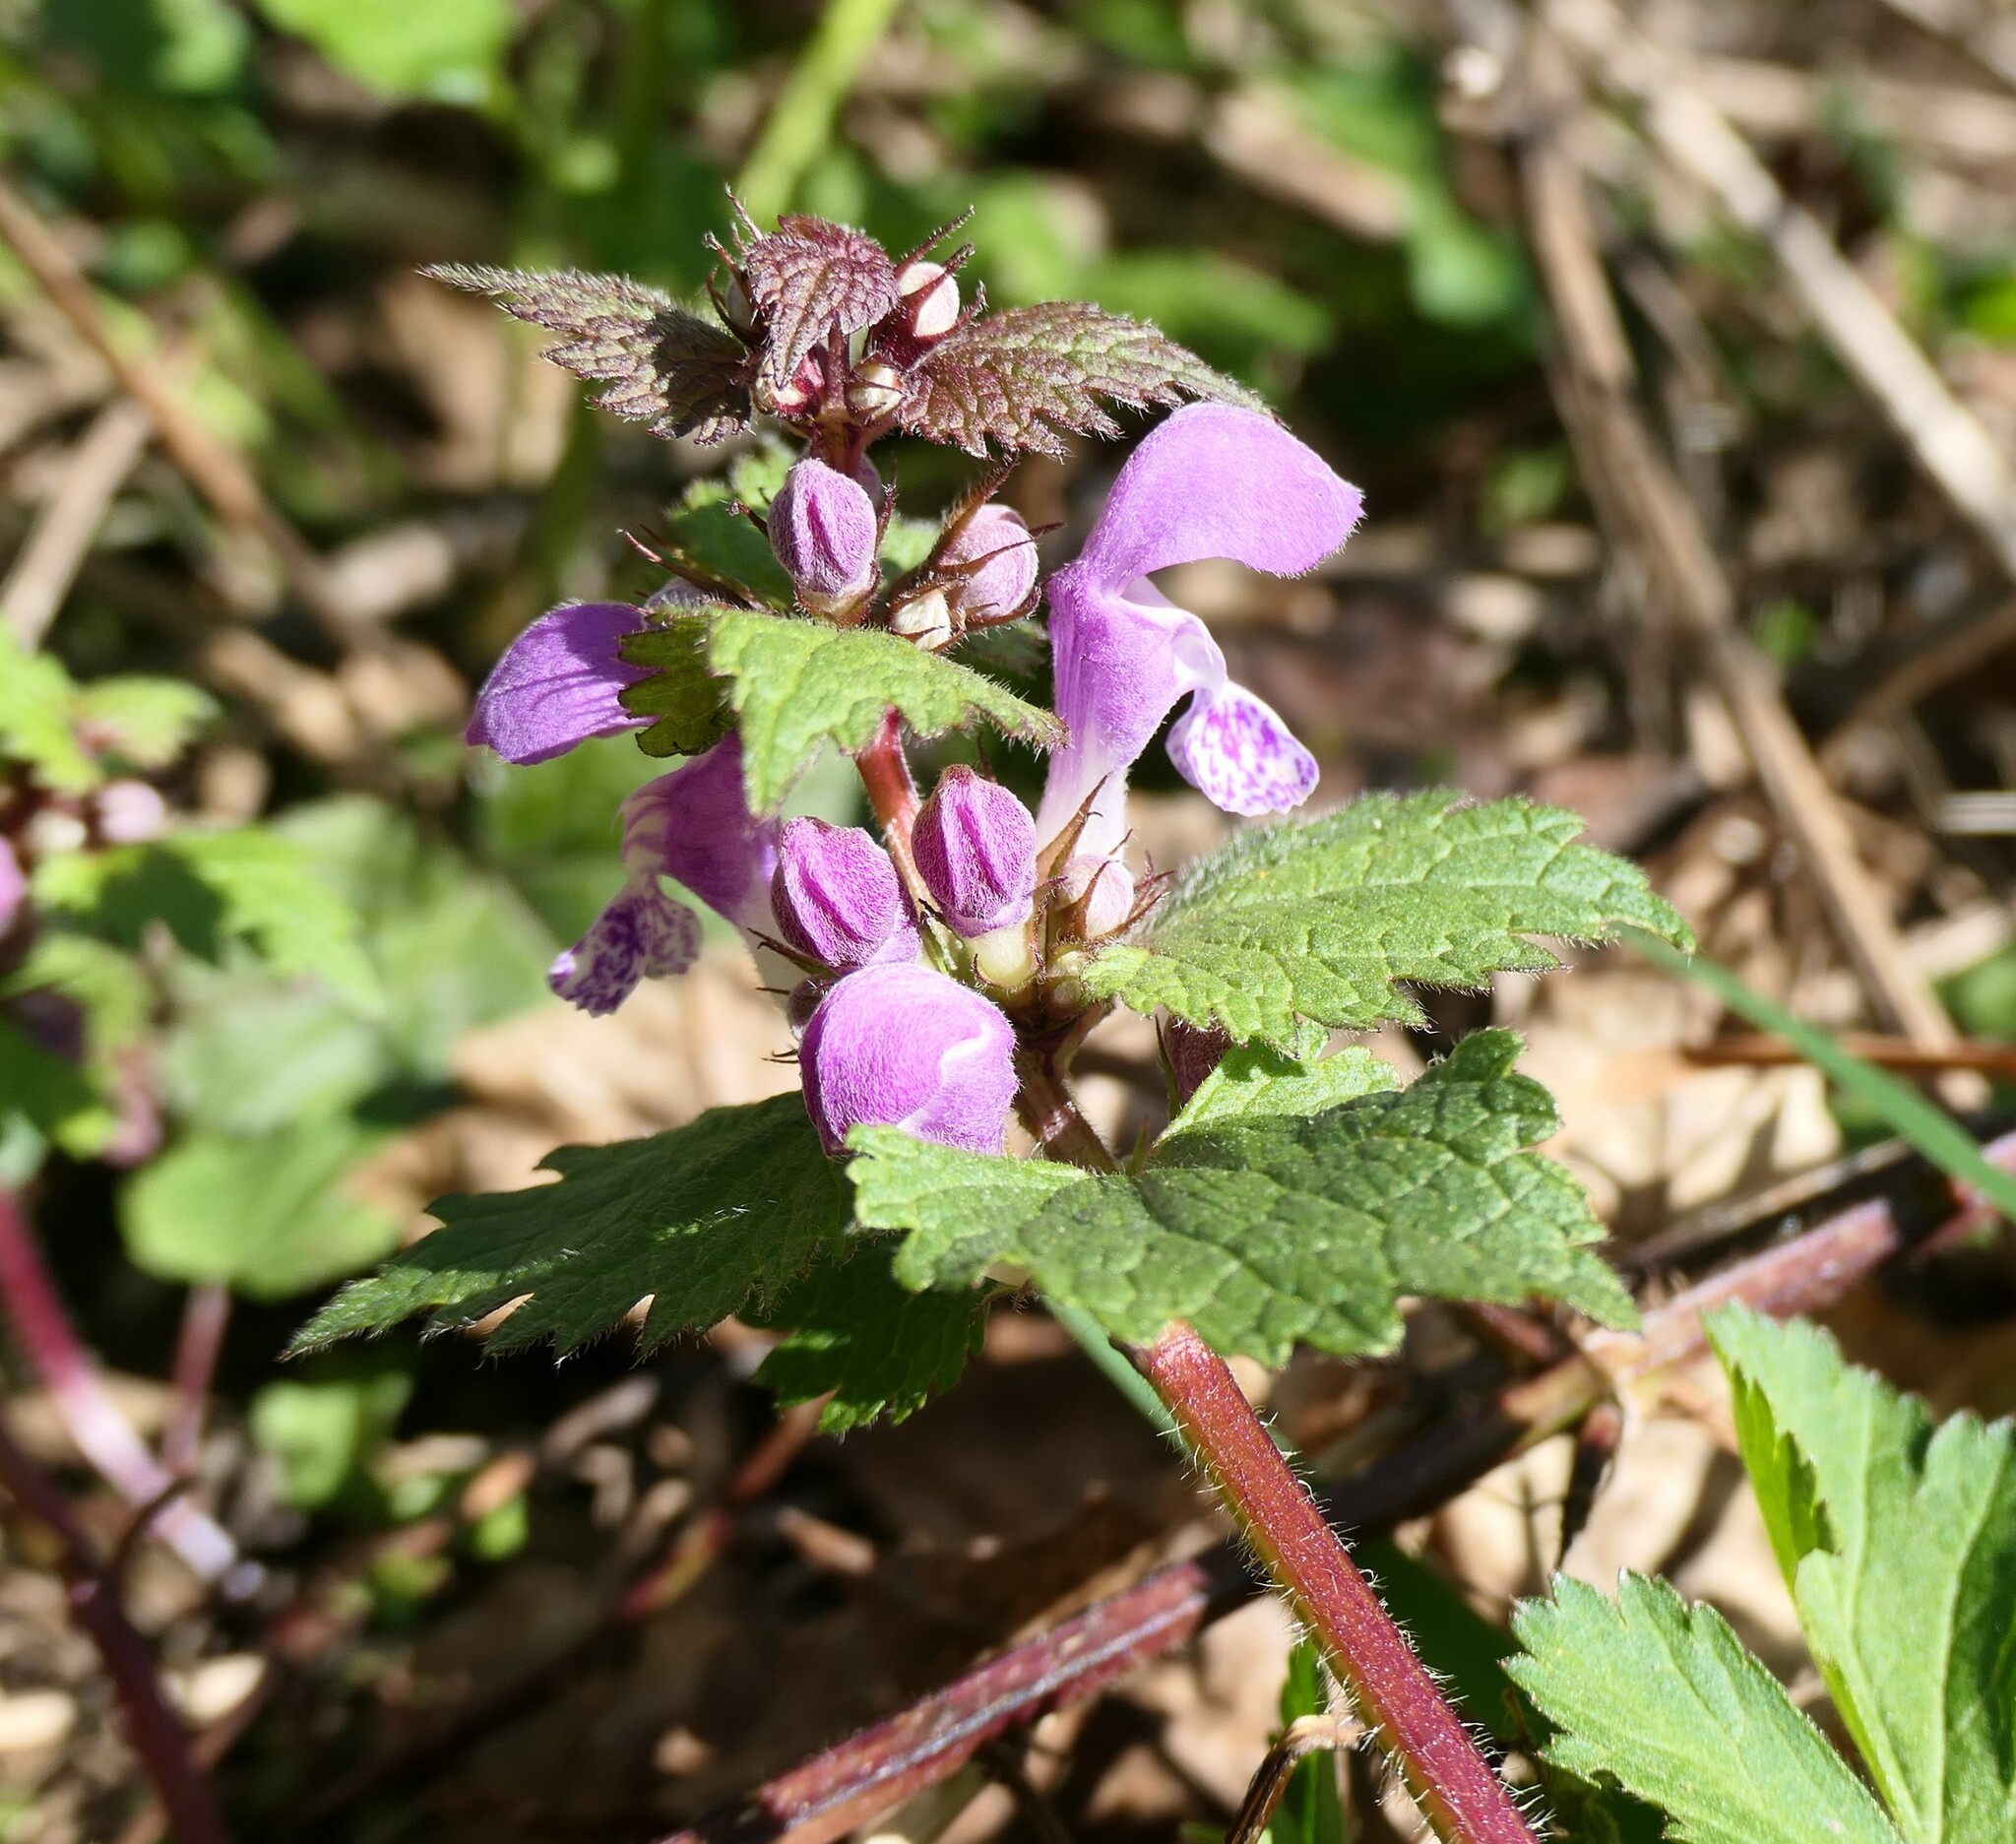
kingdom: Plantae
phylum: Tracheophyta
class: Magnoliopsida
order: Lamiales
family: Lamiaceae
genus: Lamium
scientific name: Lamium maculatum
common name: Spotted dead-nettle
